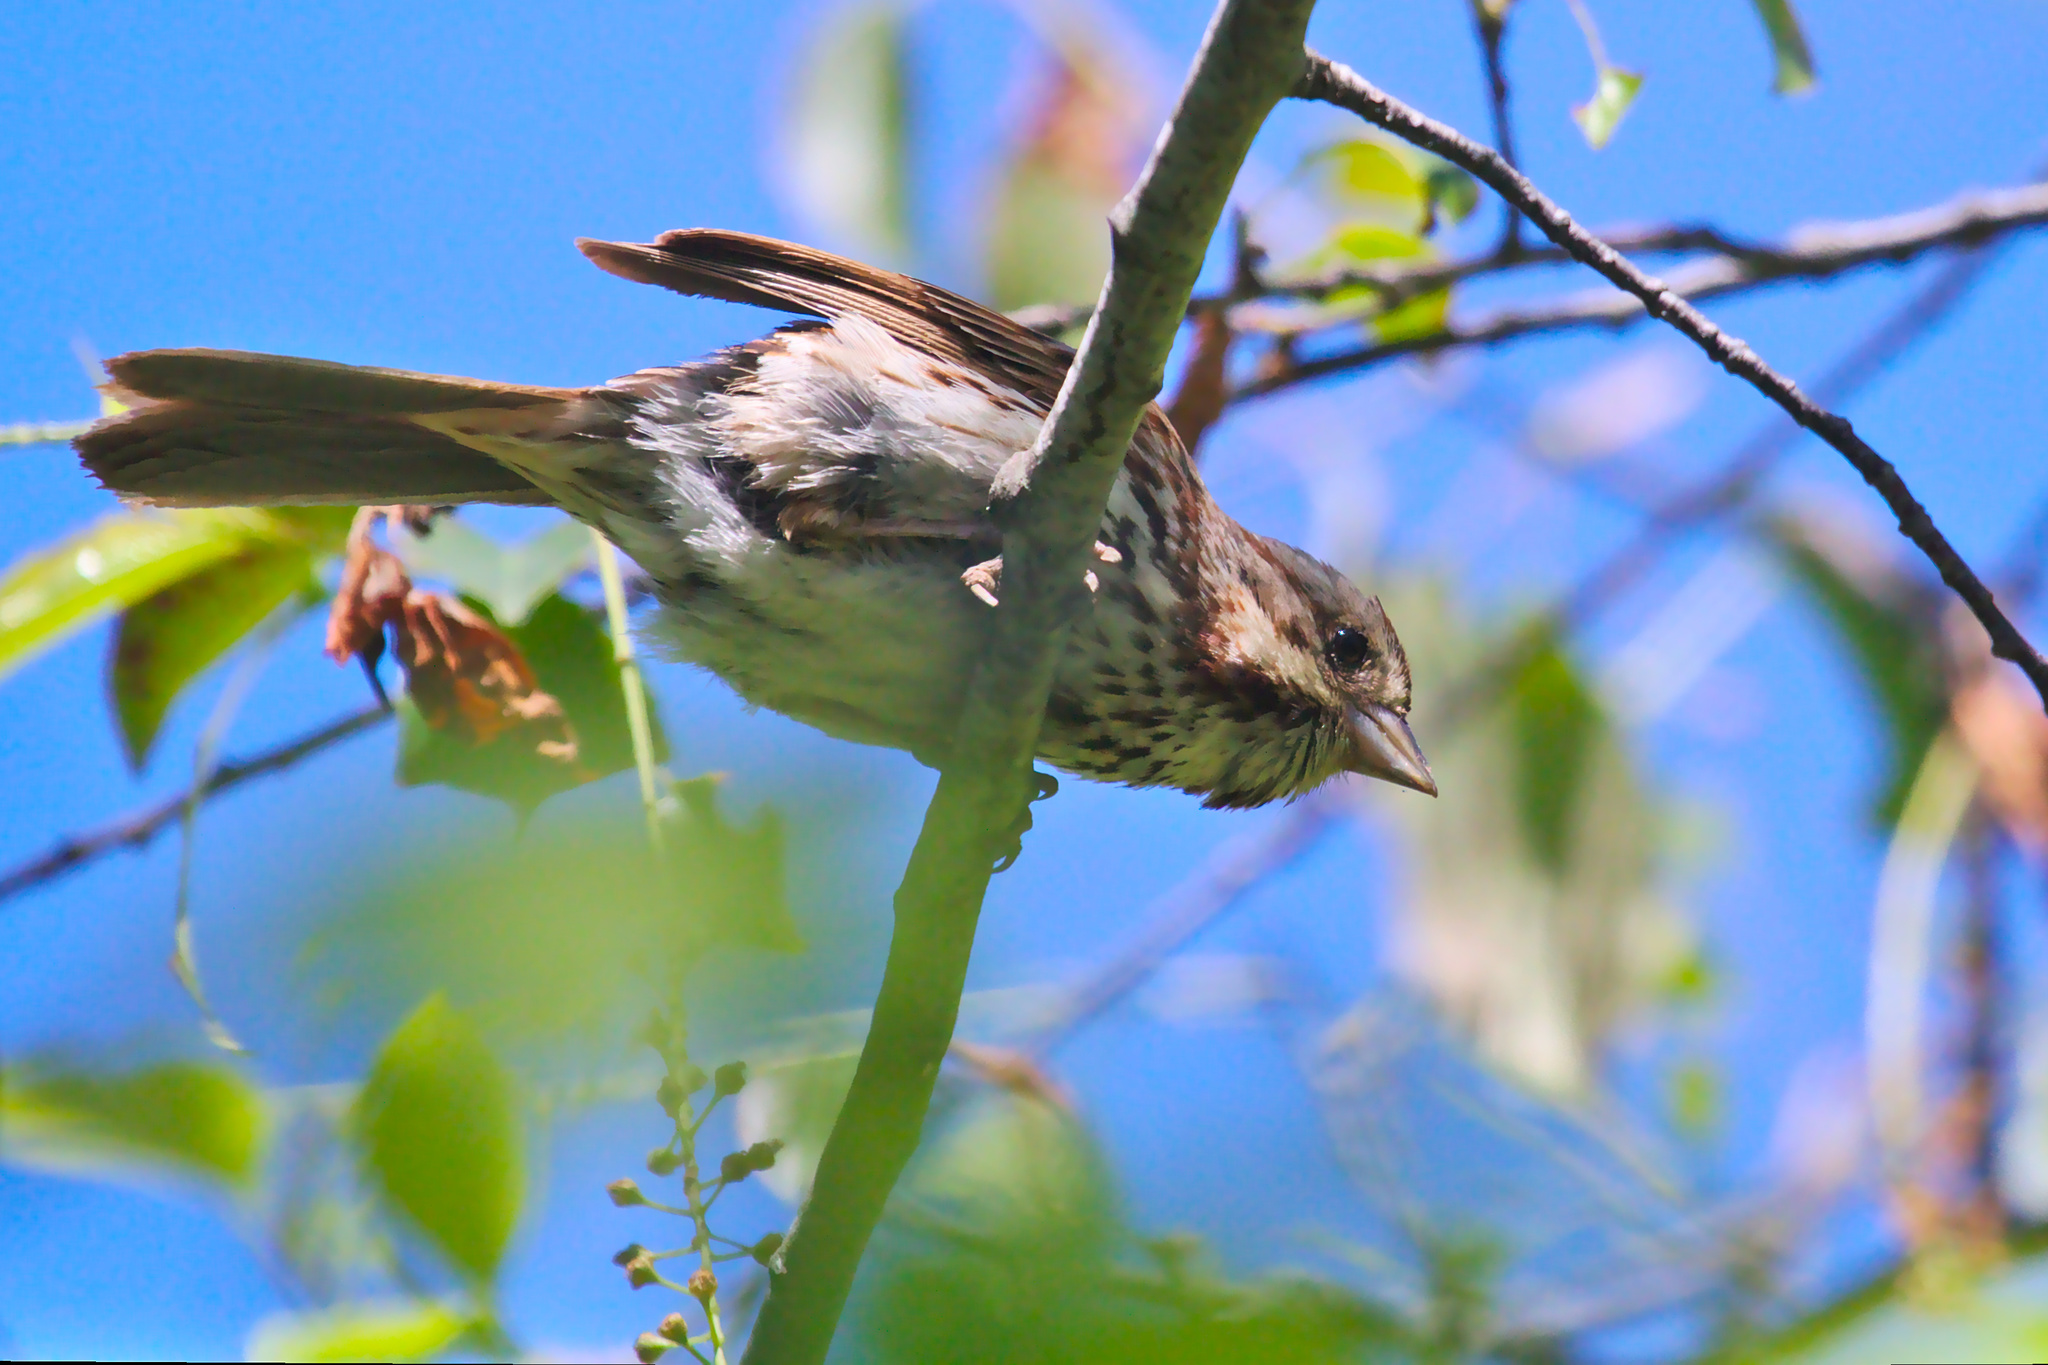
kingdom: Animalia
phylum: Chordata
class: Aves
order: Passeriformes
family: Passerellidae
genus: Melospiza
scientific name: Melospiza melodia
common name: Song sparrow
